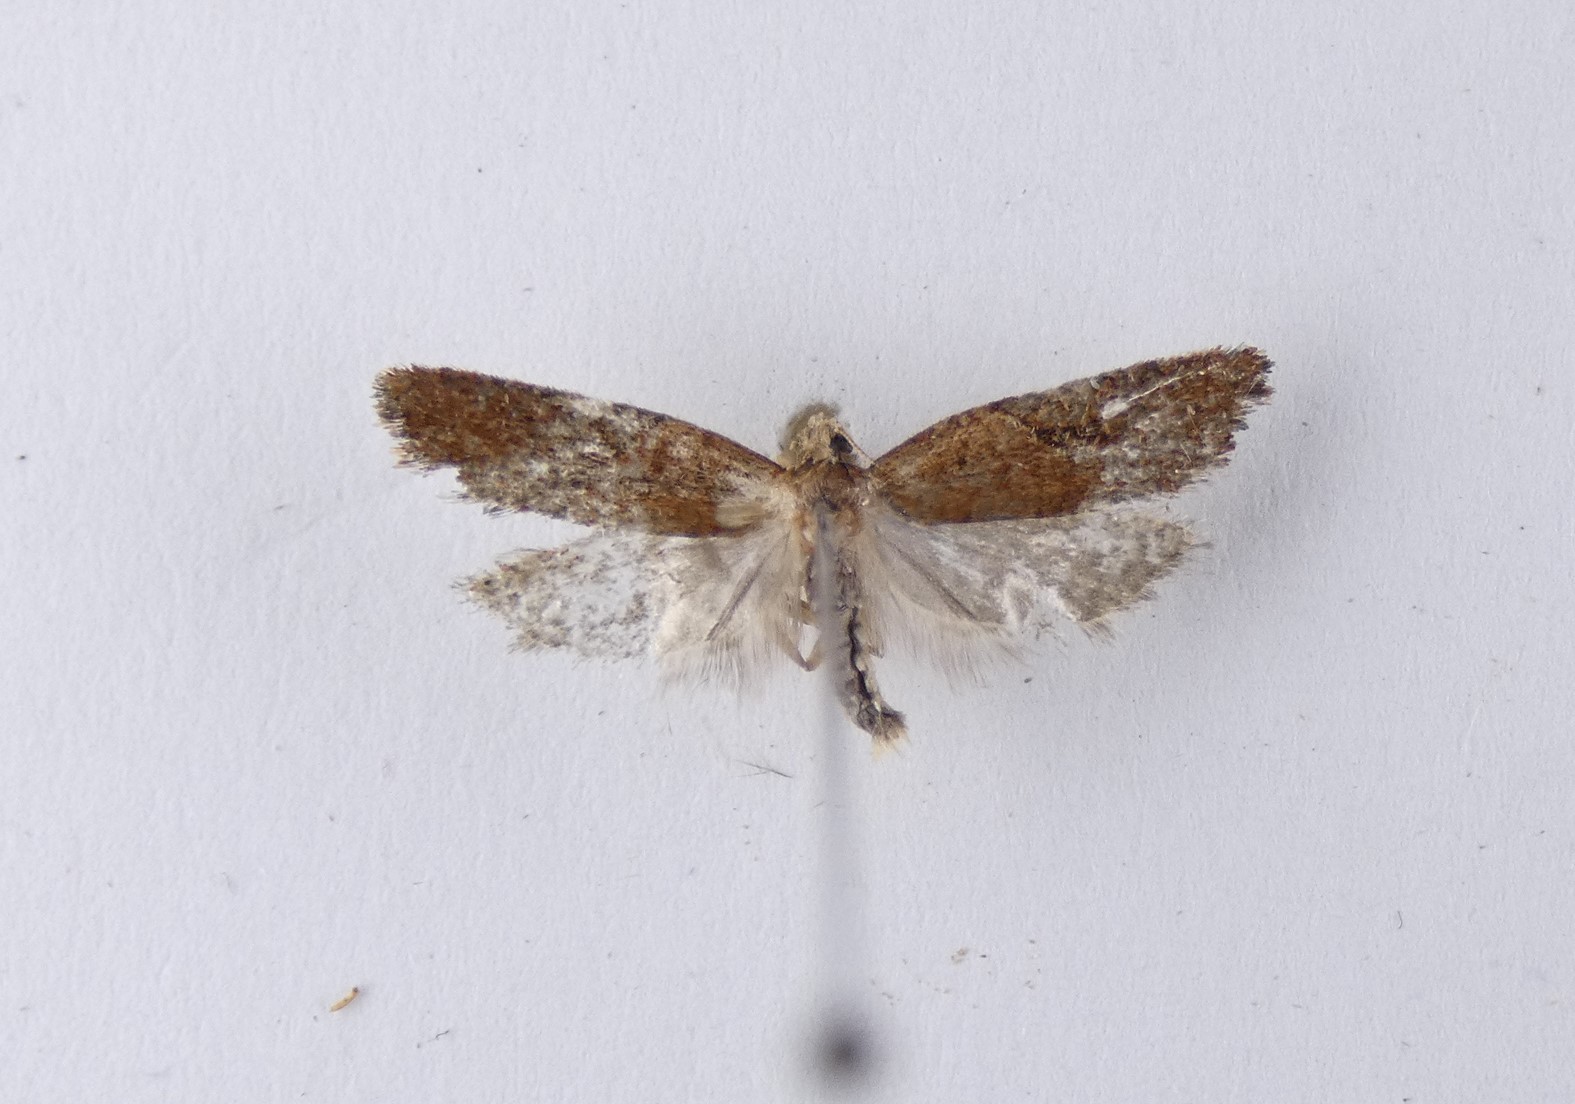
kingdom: Animalia
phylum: Arthropoda
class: Insecta
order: Lepidoptera
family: Tortricidae
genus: Capua
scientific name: Capua semiferana
